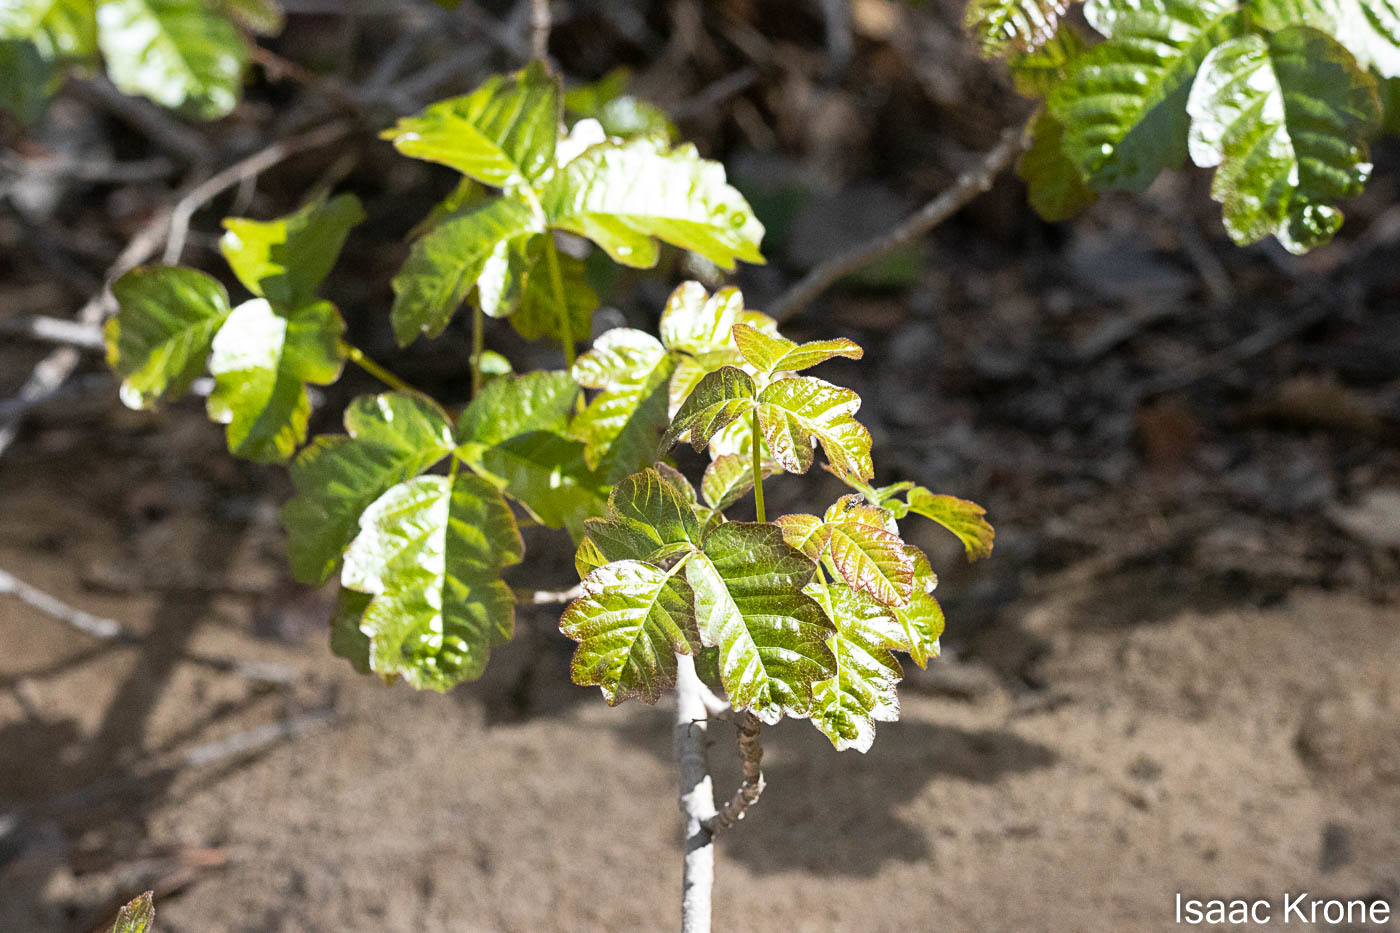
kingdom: Plantae
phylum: Tracheophyta
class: Magnoliopsida
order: Sapindales
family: Anacardiaceae
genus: Toxicodendron
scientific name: Toxicodendron diversilobum
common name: Pacific poison-oak
